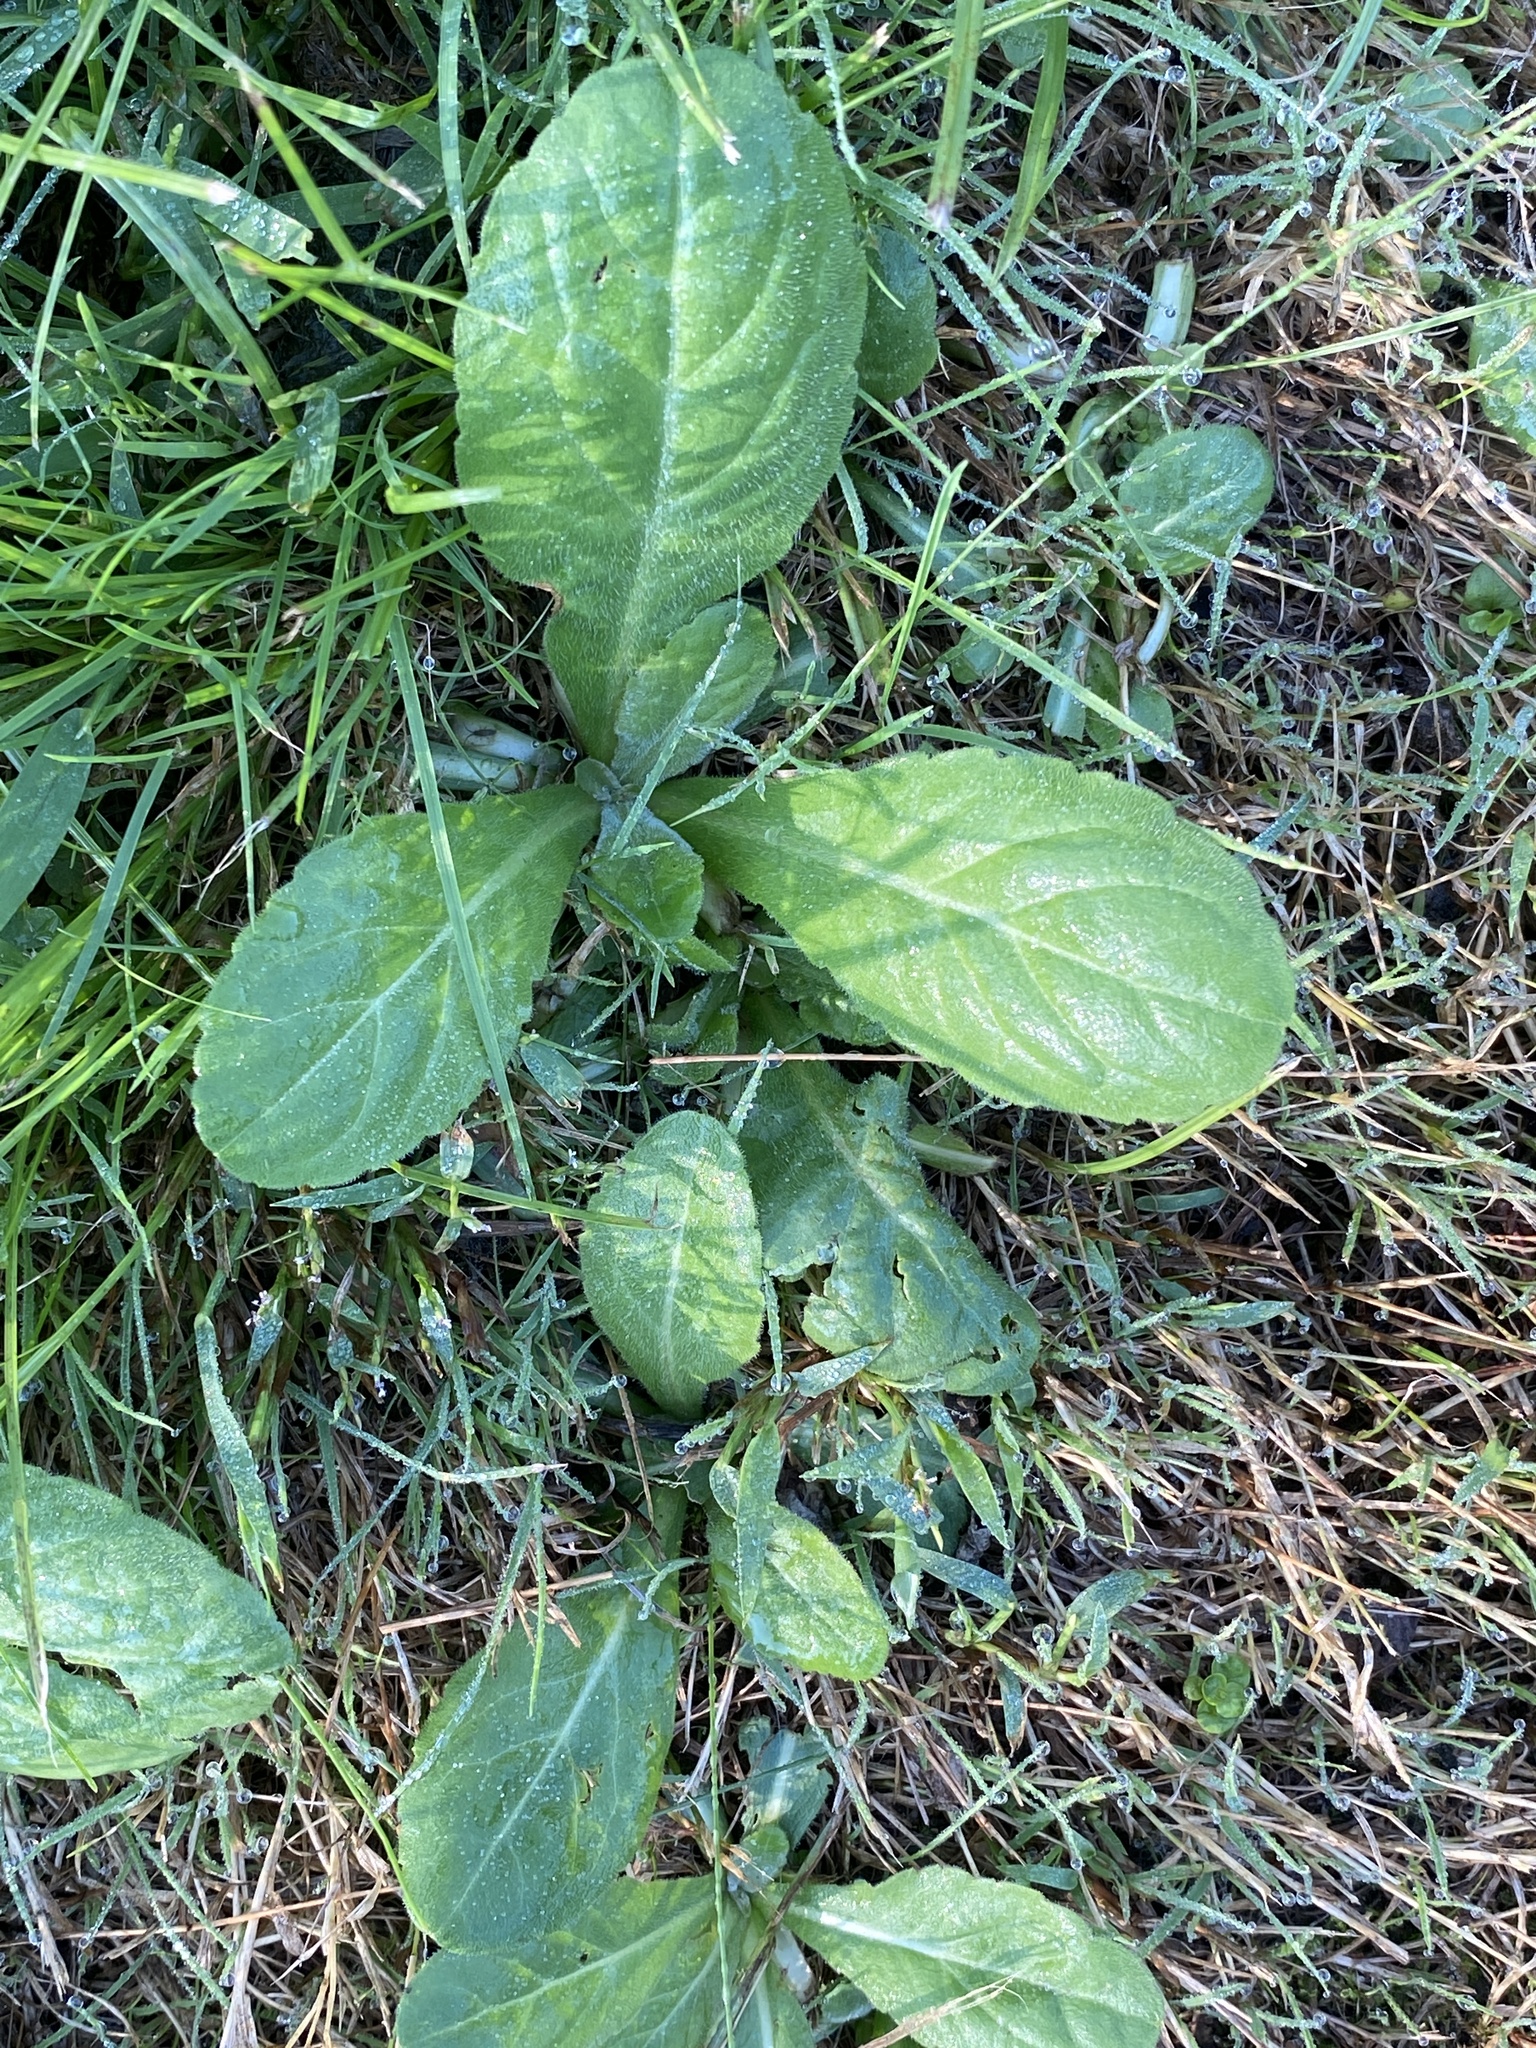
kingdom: Plantae
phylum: Tracheophyta
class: Magnoliopsida
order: Asterales
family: Asteraceae
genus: Erigeron
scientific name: Erigeron pulchellus
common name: Hairy fleabane
